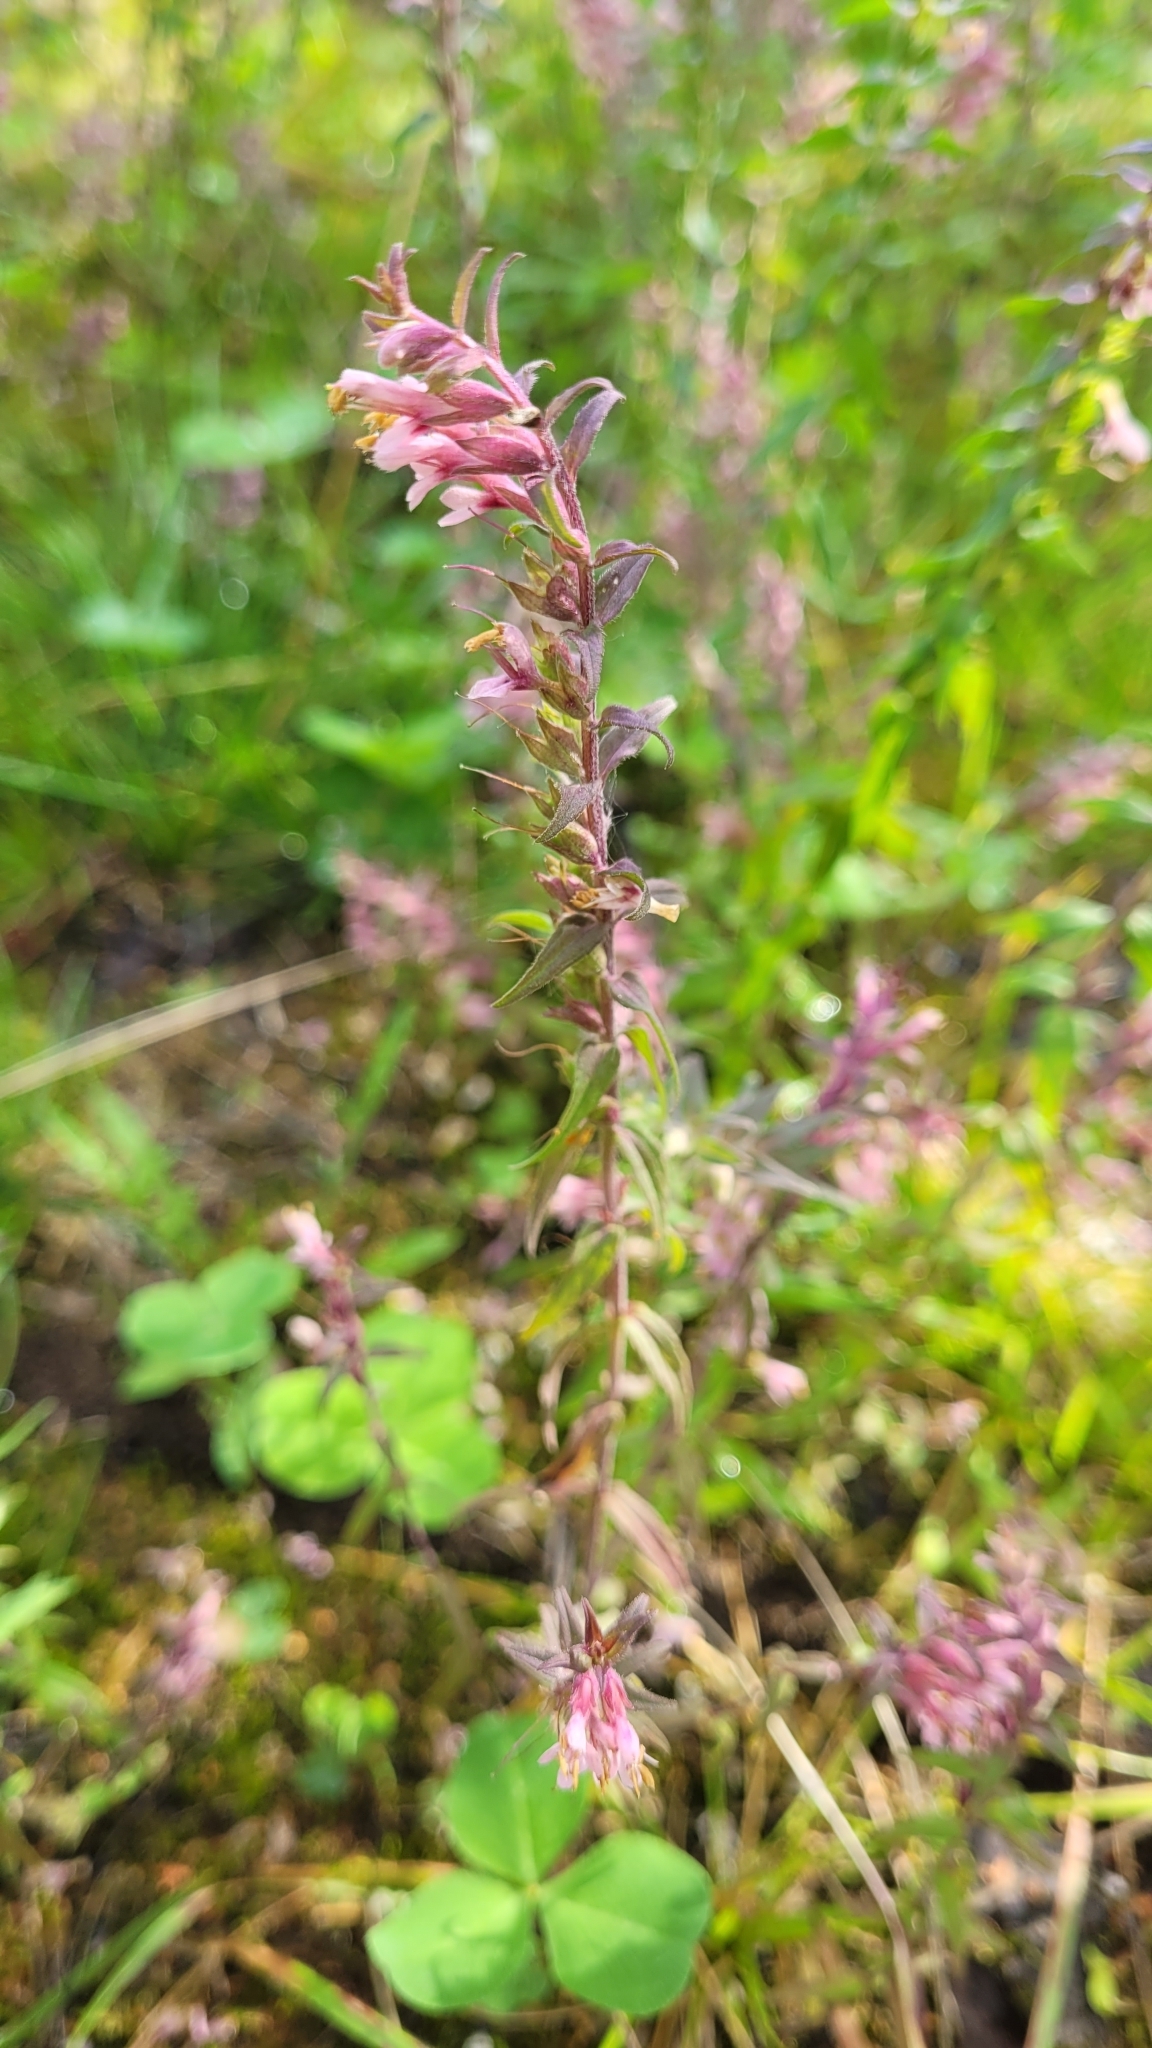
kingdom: Plantae
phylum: Tracheophyta
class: Magnoliopsida
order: Lamiales
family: Orobanchaceae
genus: Odontites
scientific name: Odontites vulgaris
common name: Broomrape
